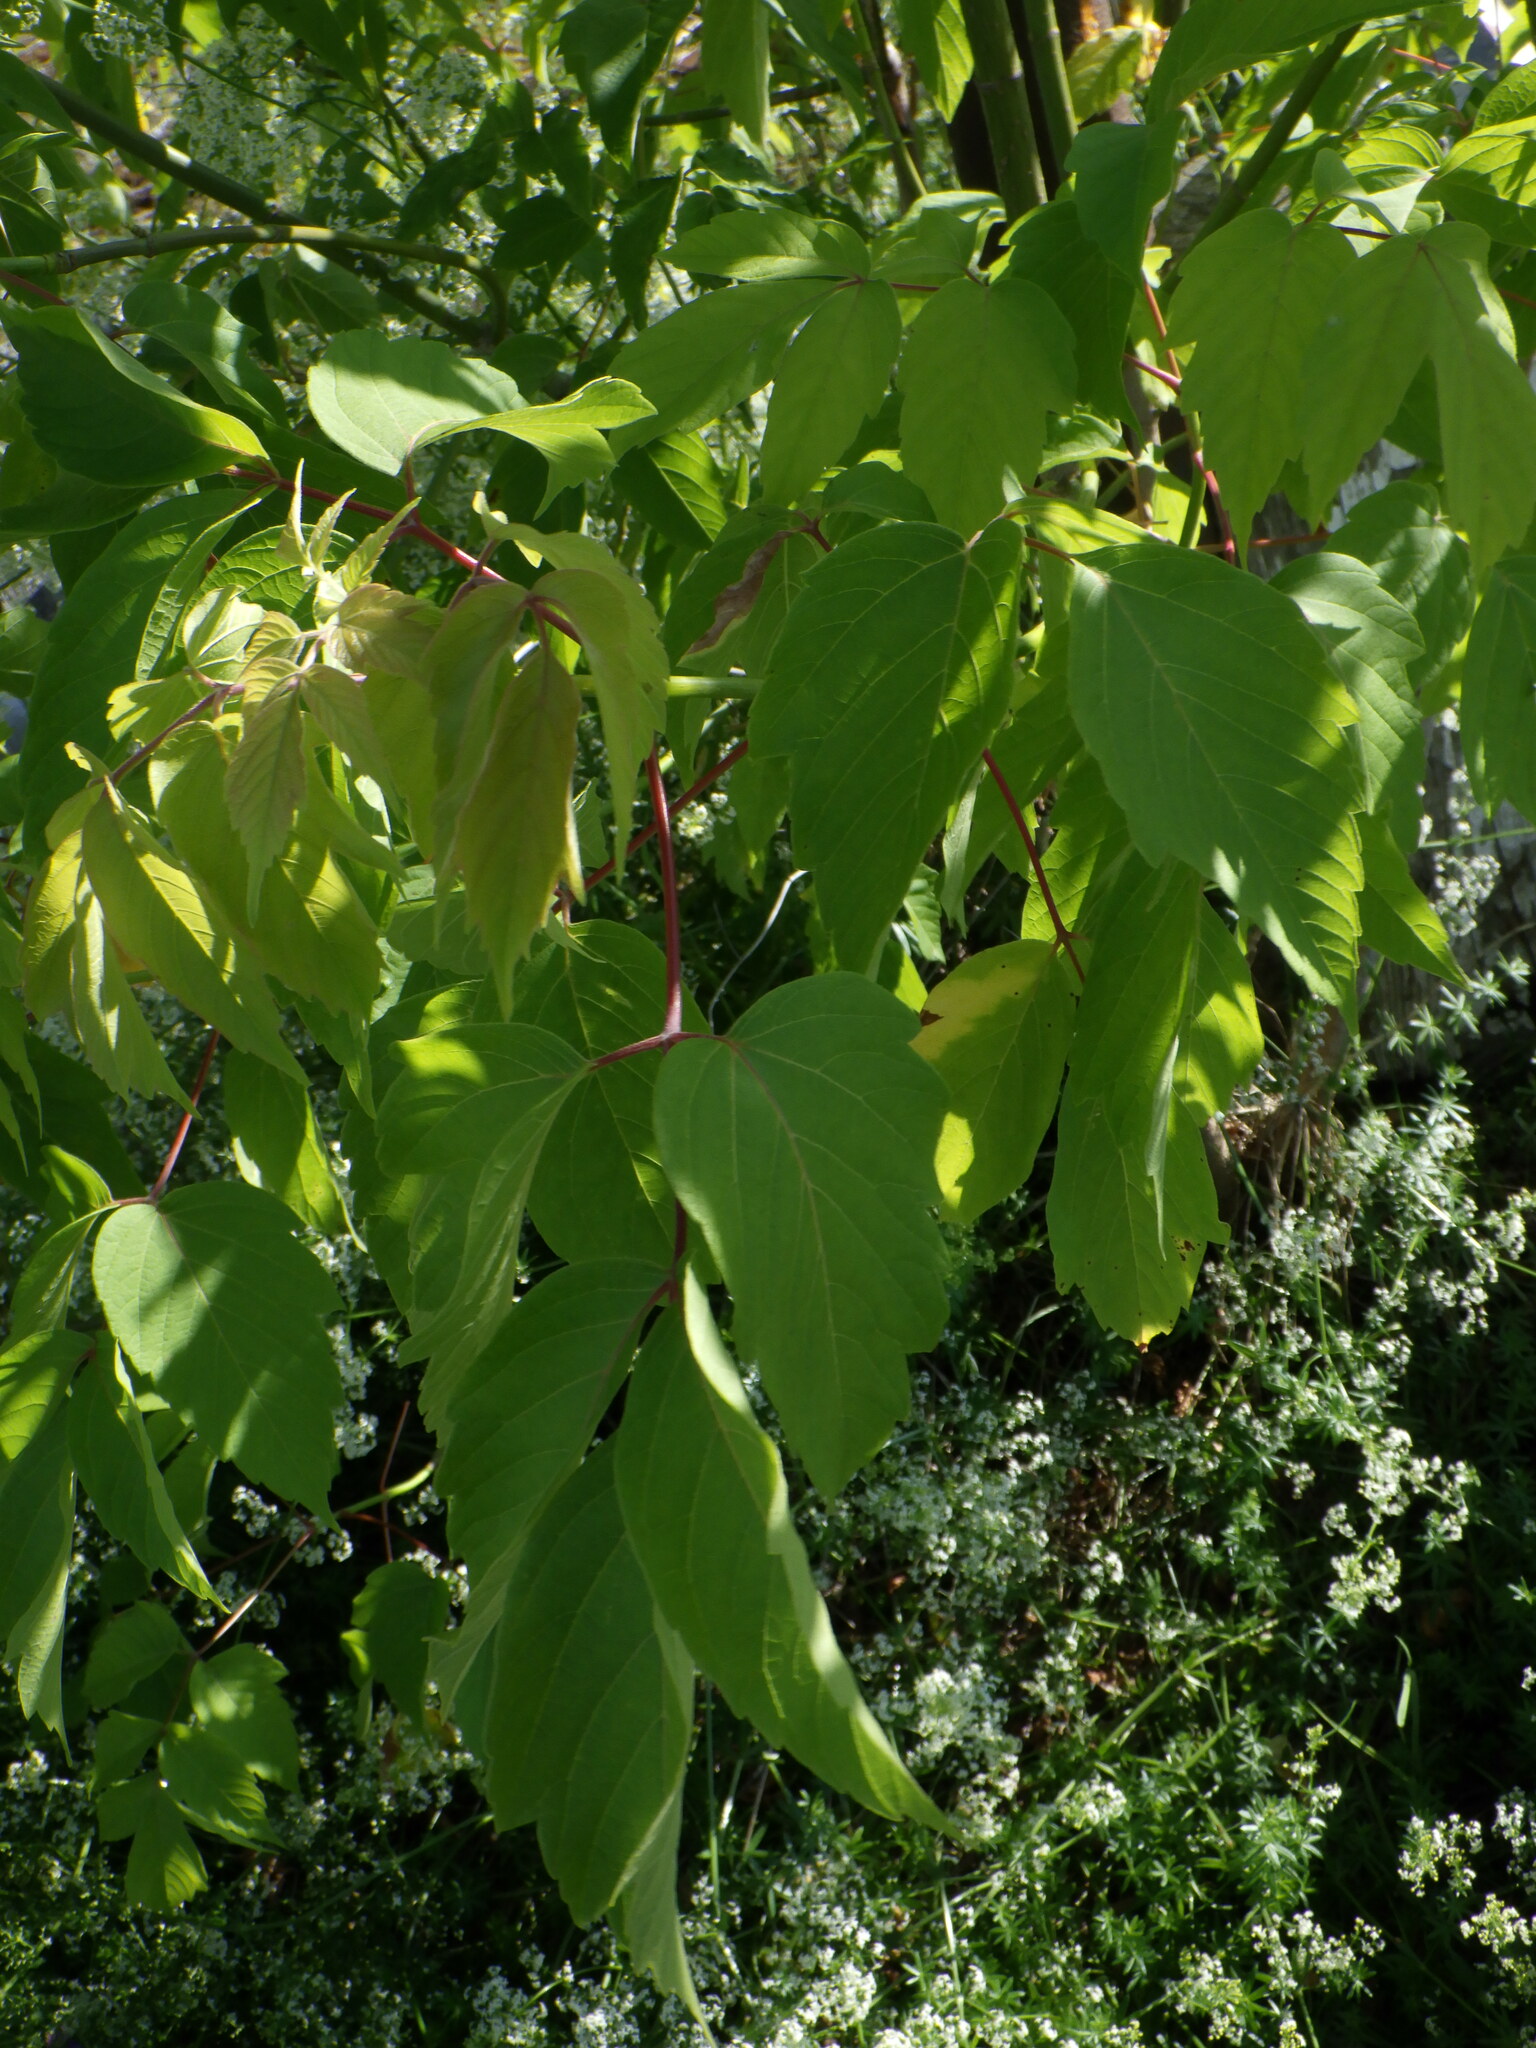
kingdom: Plantae
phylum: Tracheophyta
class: Magnoliopsida
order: Sapindales
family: Sapindaceae
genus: Acer
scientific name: Acer negundo
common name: Ashleaf maple
